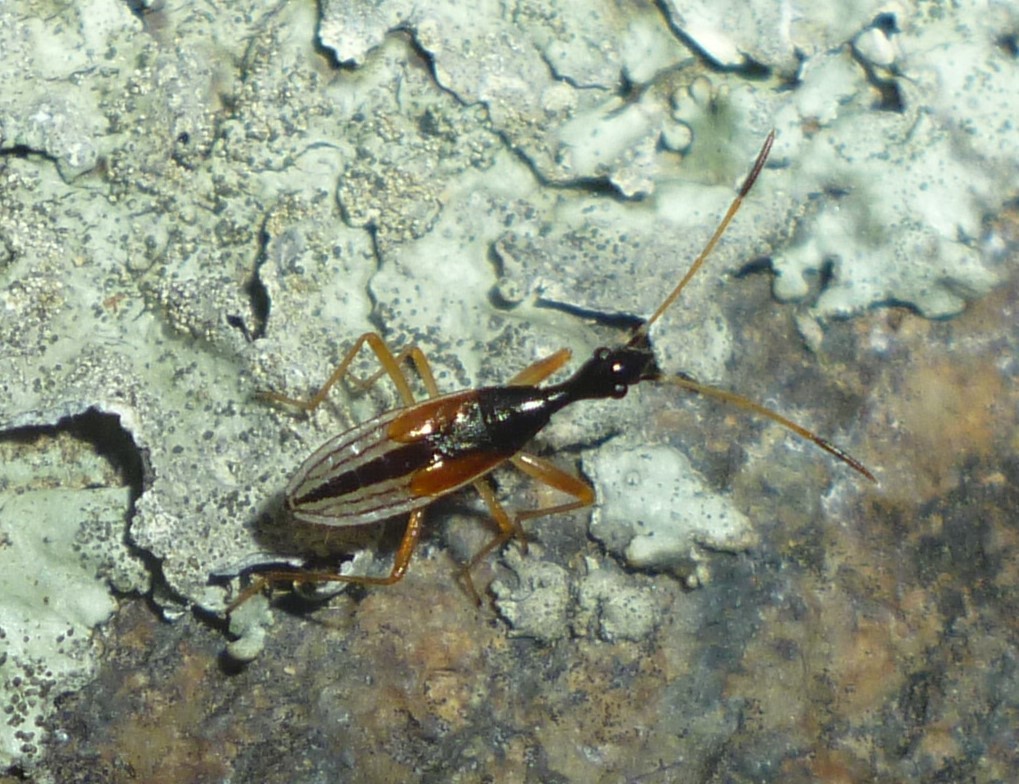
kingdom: Animalia
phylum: Arthropoda
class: Insecta
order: Hemiptera
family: Rhyparochromidae
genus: Myodocha
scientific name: Myodocha serripes
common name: Long-necked seed bug
